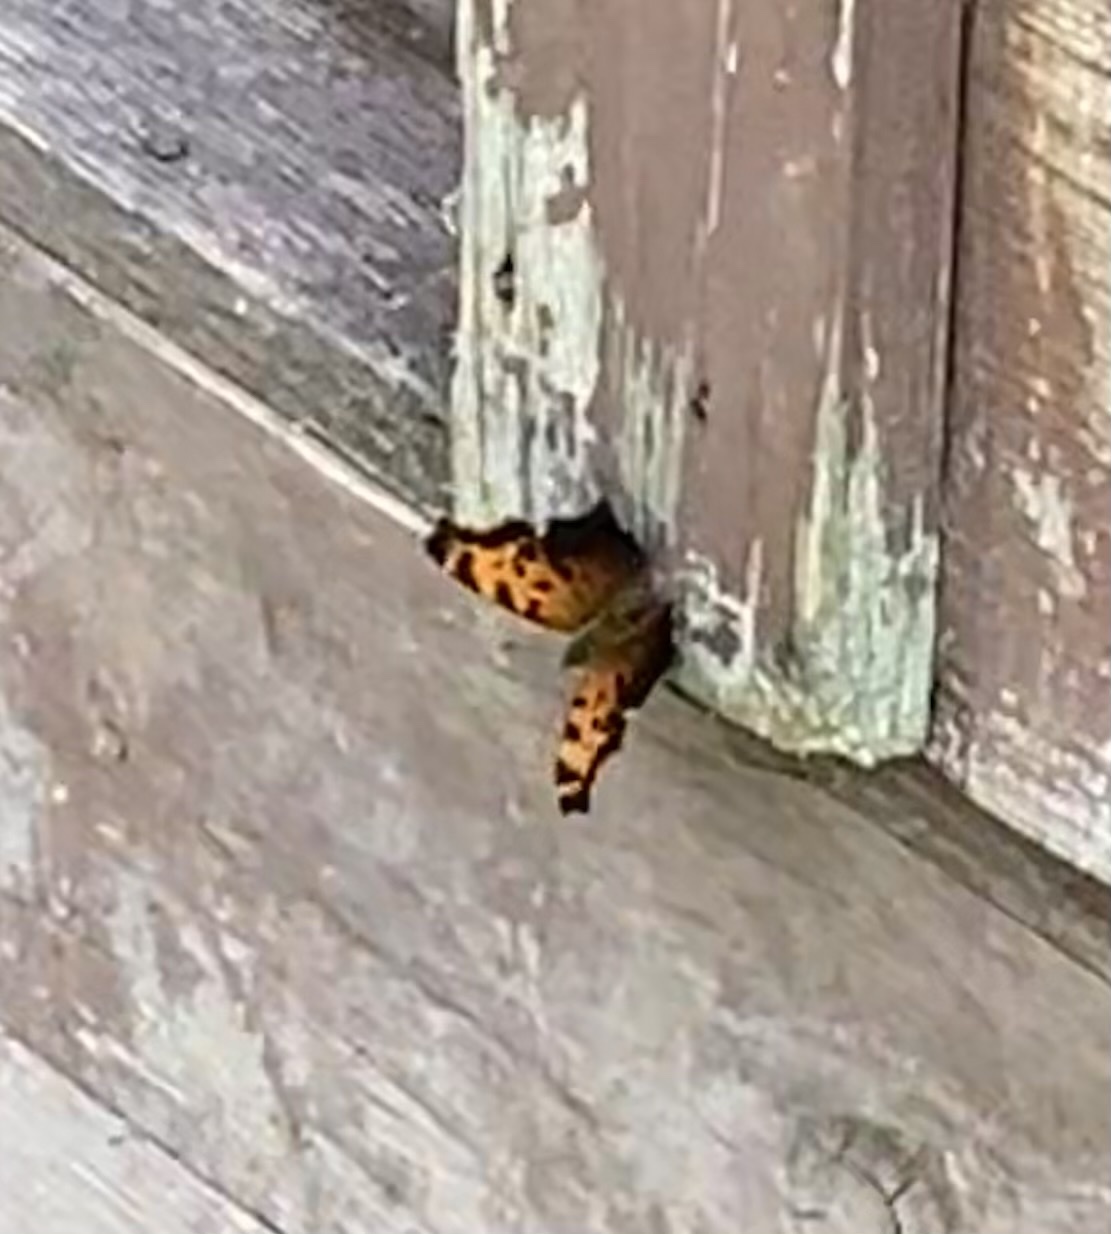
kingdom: Animalia
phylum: Arthropoda
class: Insecta
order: Lepidoptera
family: Nymphalidae
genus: Polygonia
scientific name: Polygonia comma
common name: Eastern comma
